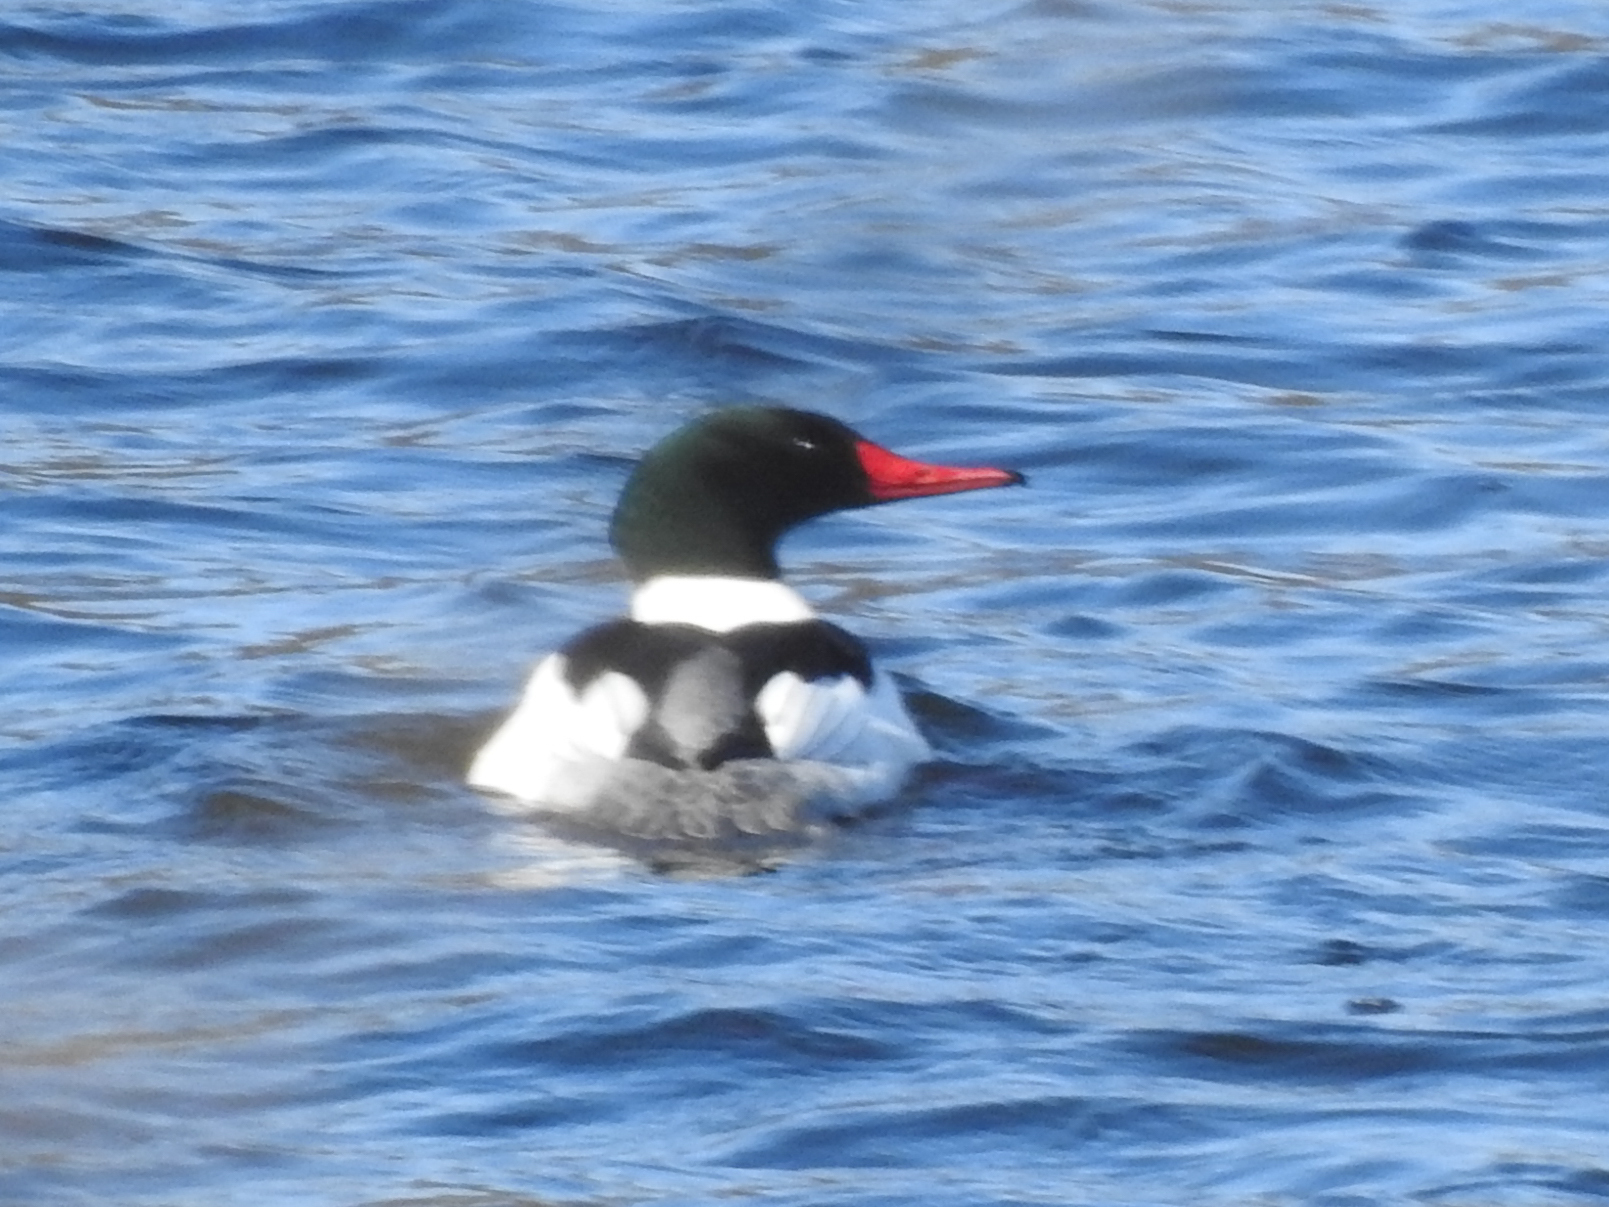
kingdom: Animalia
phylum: Chordata
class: Aves
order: Anseriformes
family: Anatidae
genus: Mergus
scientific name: Mergus merganser
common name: Common merganser
